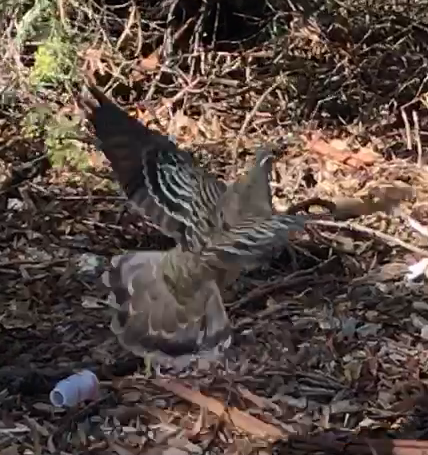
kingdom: Animalia
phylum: Chordata
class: Aves
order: Columbiformes
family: Columbidae
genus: Phaps
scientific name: Phaps chalcoptera
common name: Common bronzewing
